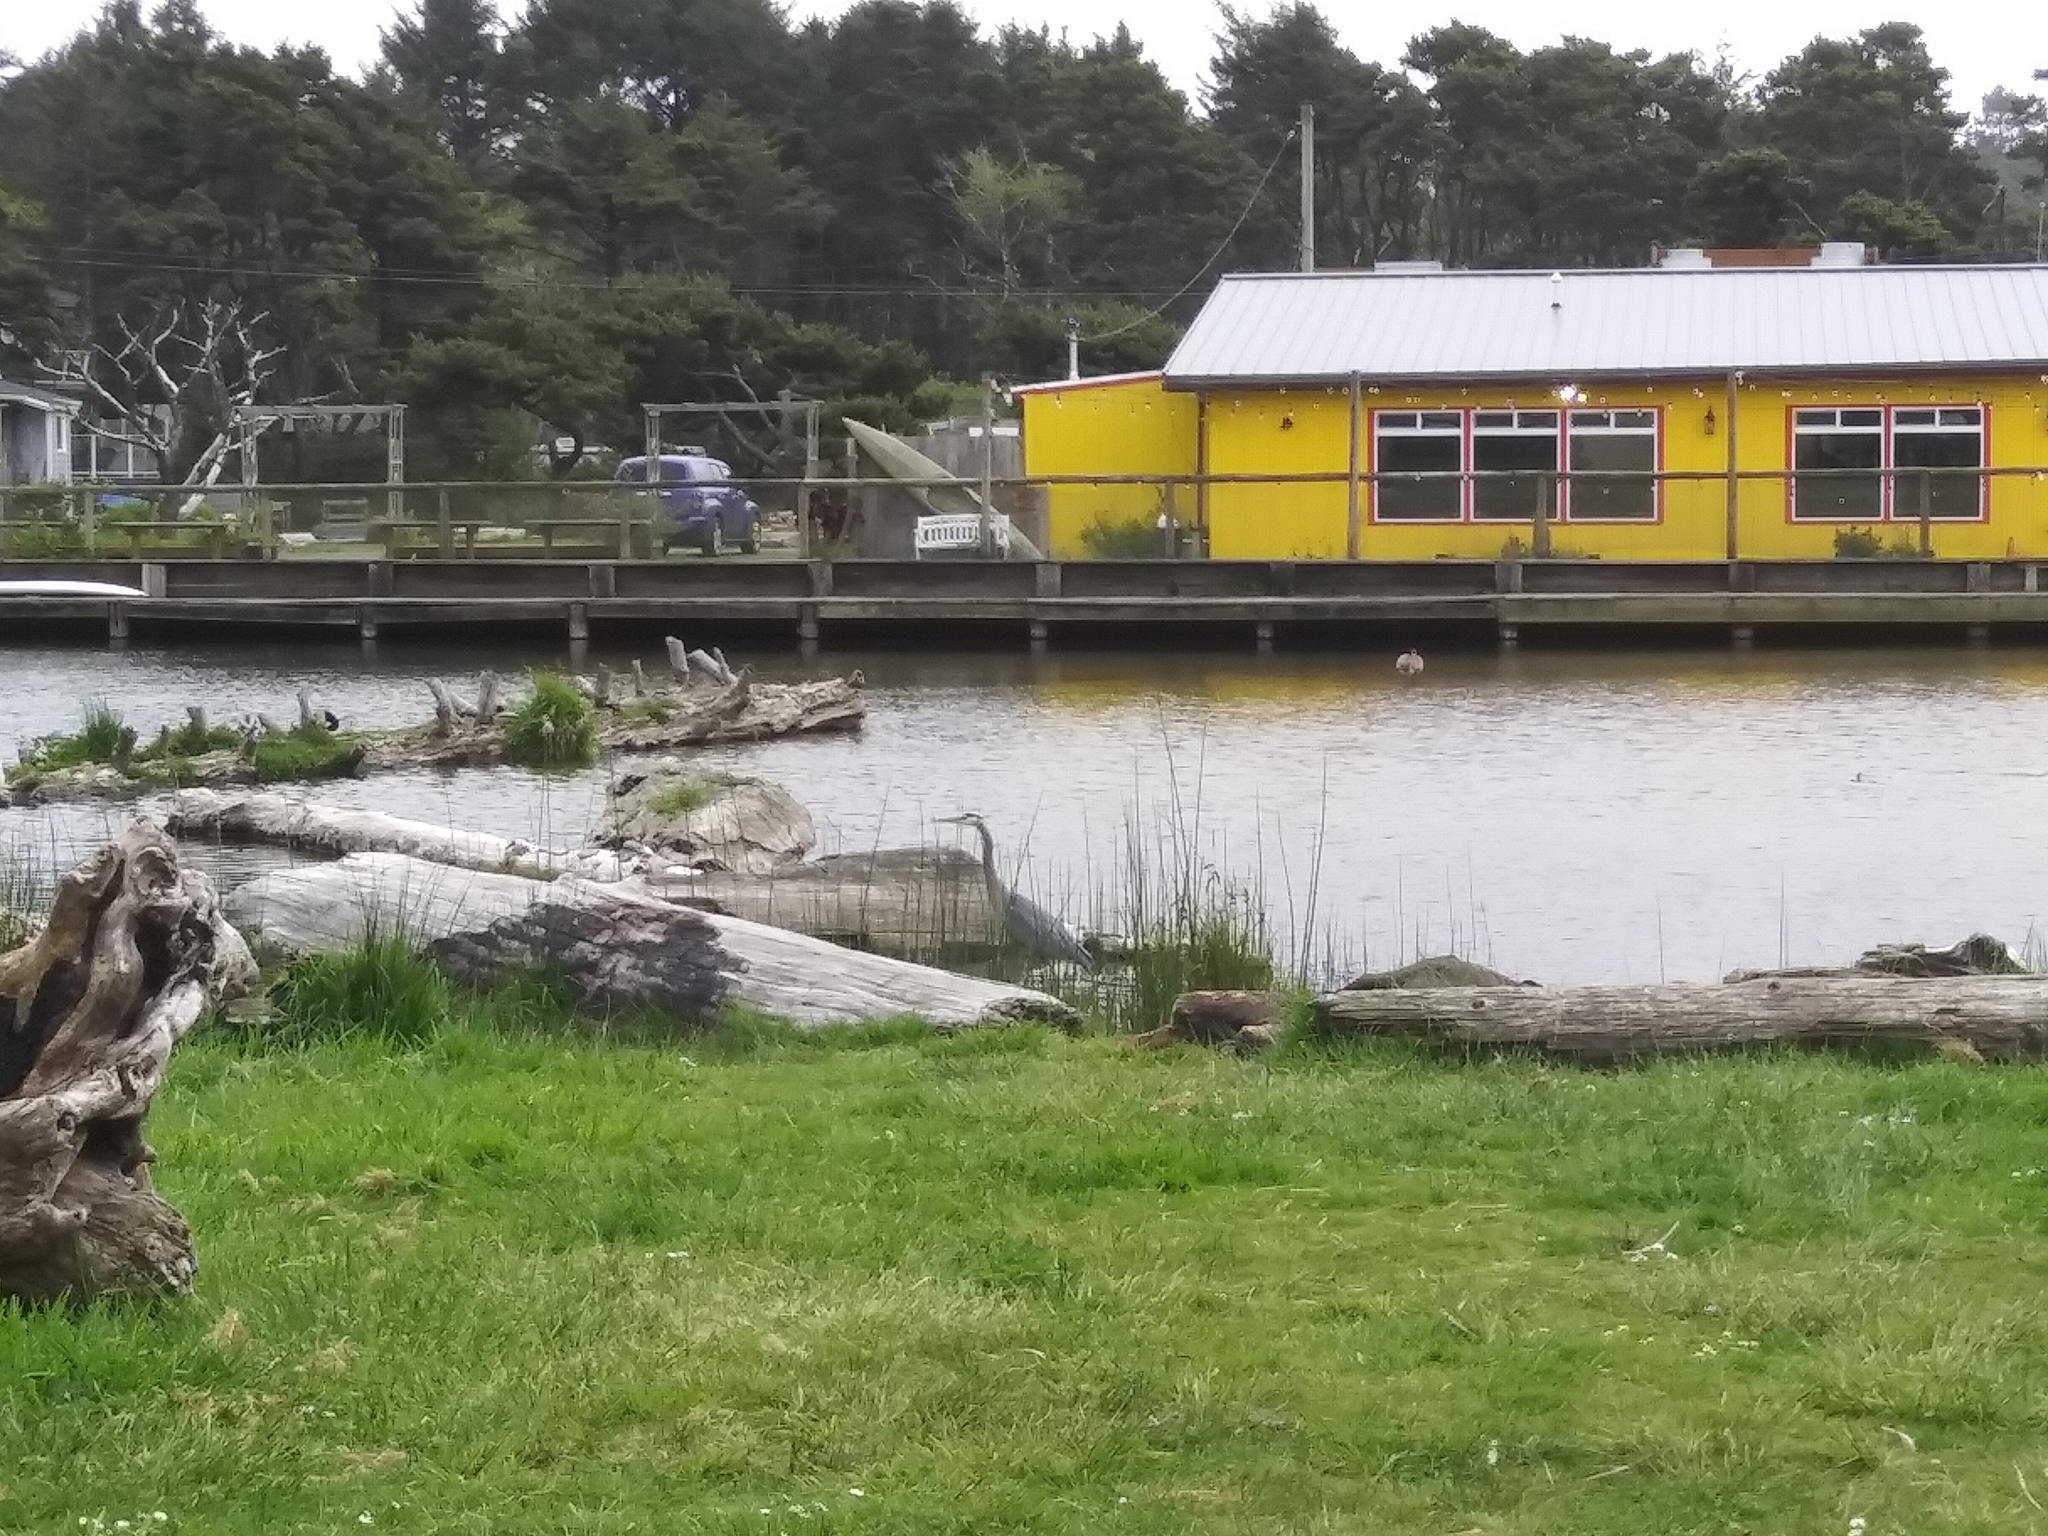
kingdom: Animalia
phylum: Chordata
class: Aves
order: Pelecaniformes
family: Ardeidae
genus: Ardea
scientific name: Ardea herodias
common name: Great blue heron
